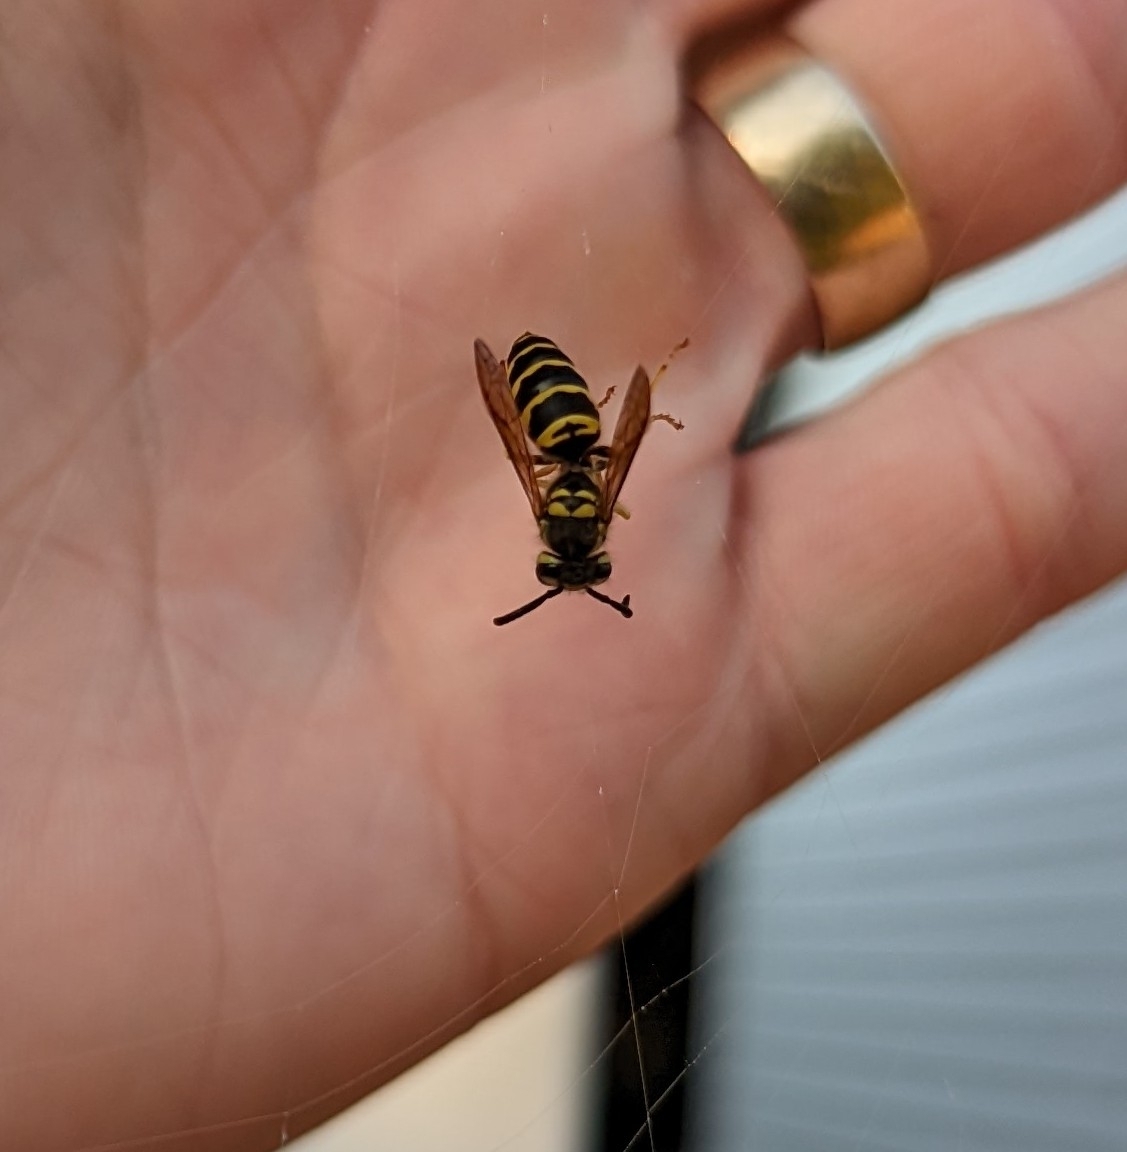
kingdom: Animalia
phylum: Arthropoda
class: Insecta
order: Hymenoptera
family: Vespidae
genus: Vespula
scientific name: Vespula maculifrons
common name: Eastern yellowjacket
